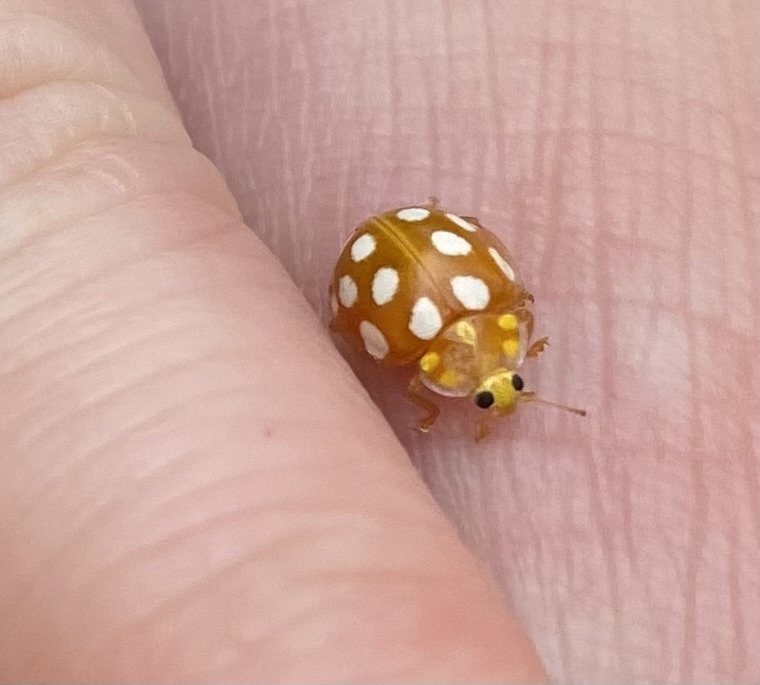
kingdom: Animalia
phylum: Arthropoda
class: Insecta
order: Coleoptera
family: Coccinellidae
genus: Halyzia
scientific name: Halyzia sedecimguttata
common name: Orange ladybird
